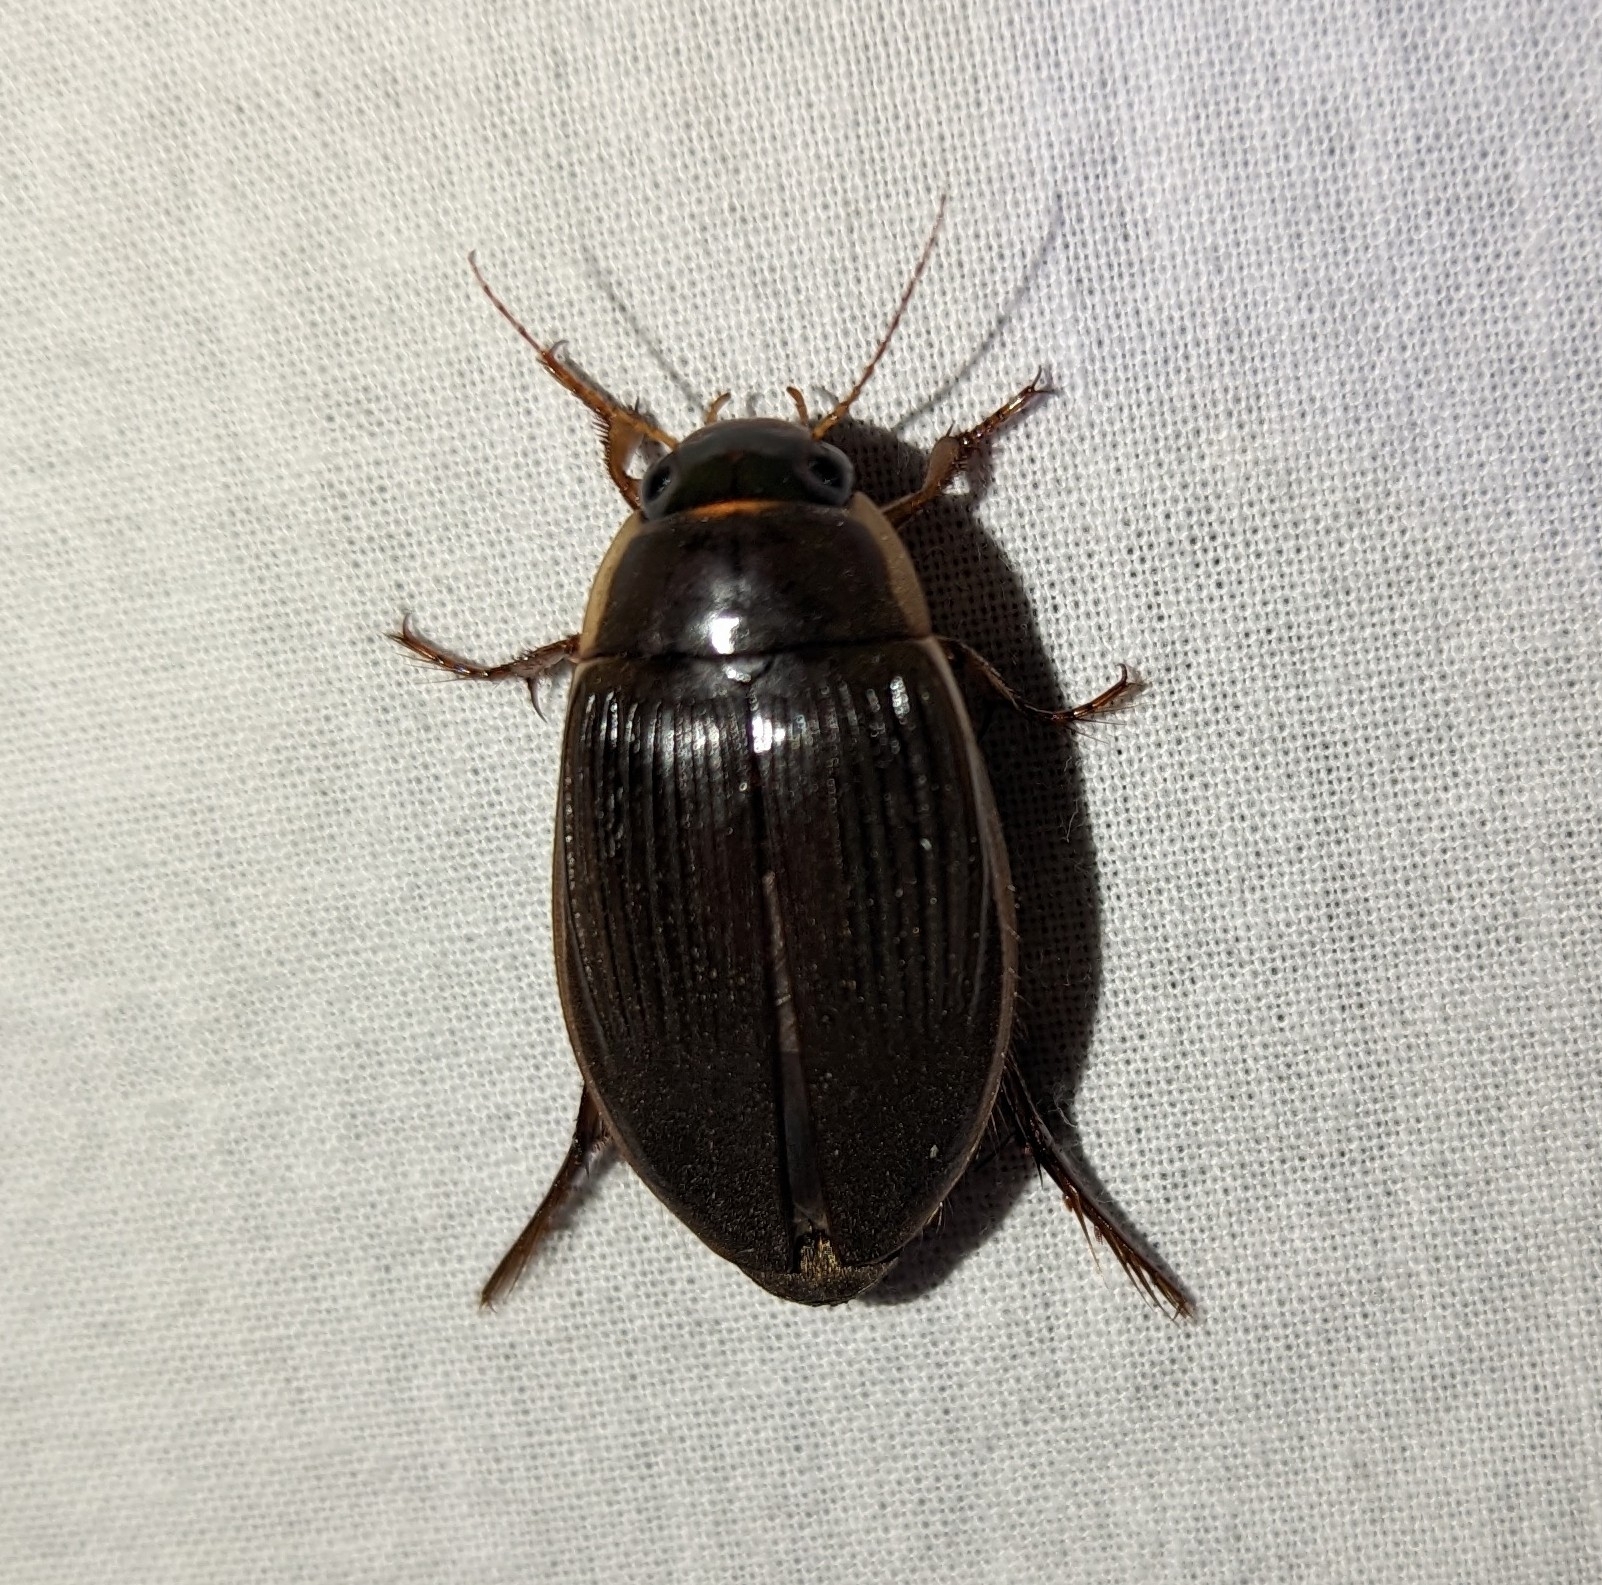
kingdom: Animalia
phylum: Arthropoda
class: Insecta
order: Coleoptera
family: Dytiscidae
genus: Dytiscus
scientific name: Dytiscus
